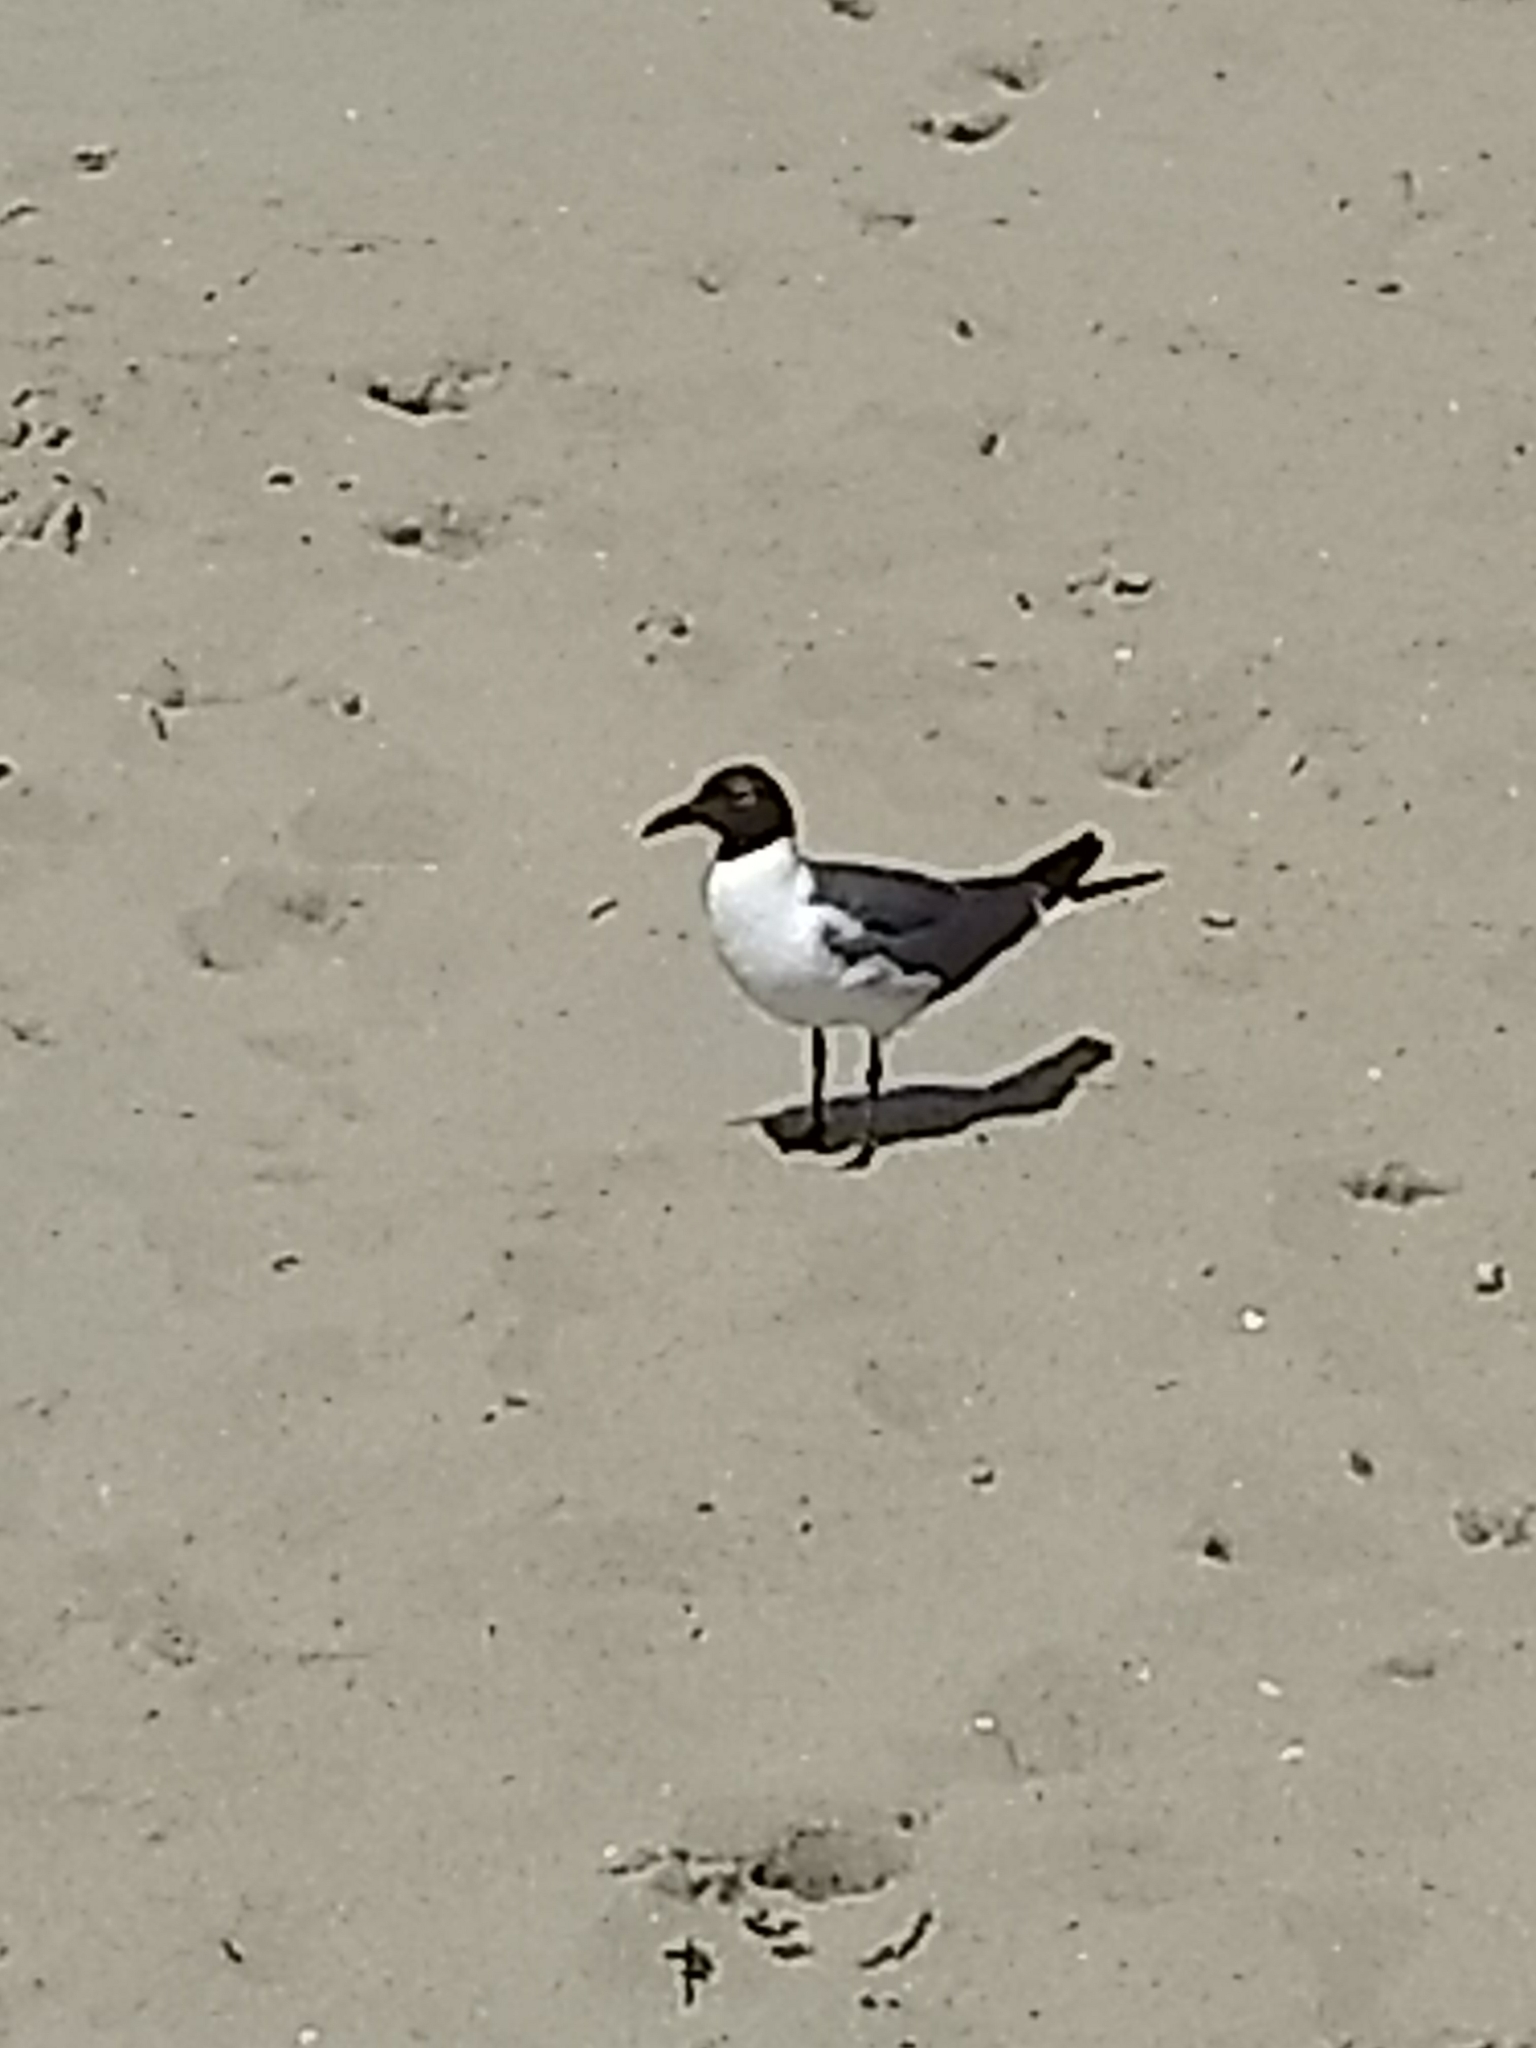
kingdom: Animalia
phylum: Chordata
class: Aves
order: Charadriiformes
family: Laridae
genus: Leucophaeus
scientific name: Leucophaeus atricilla
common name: Laughing gull
